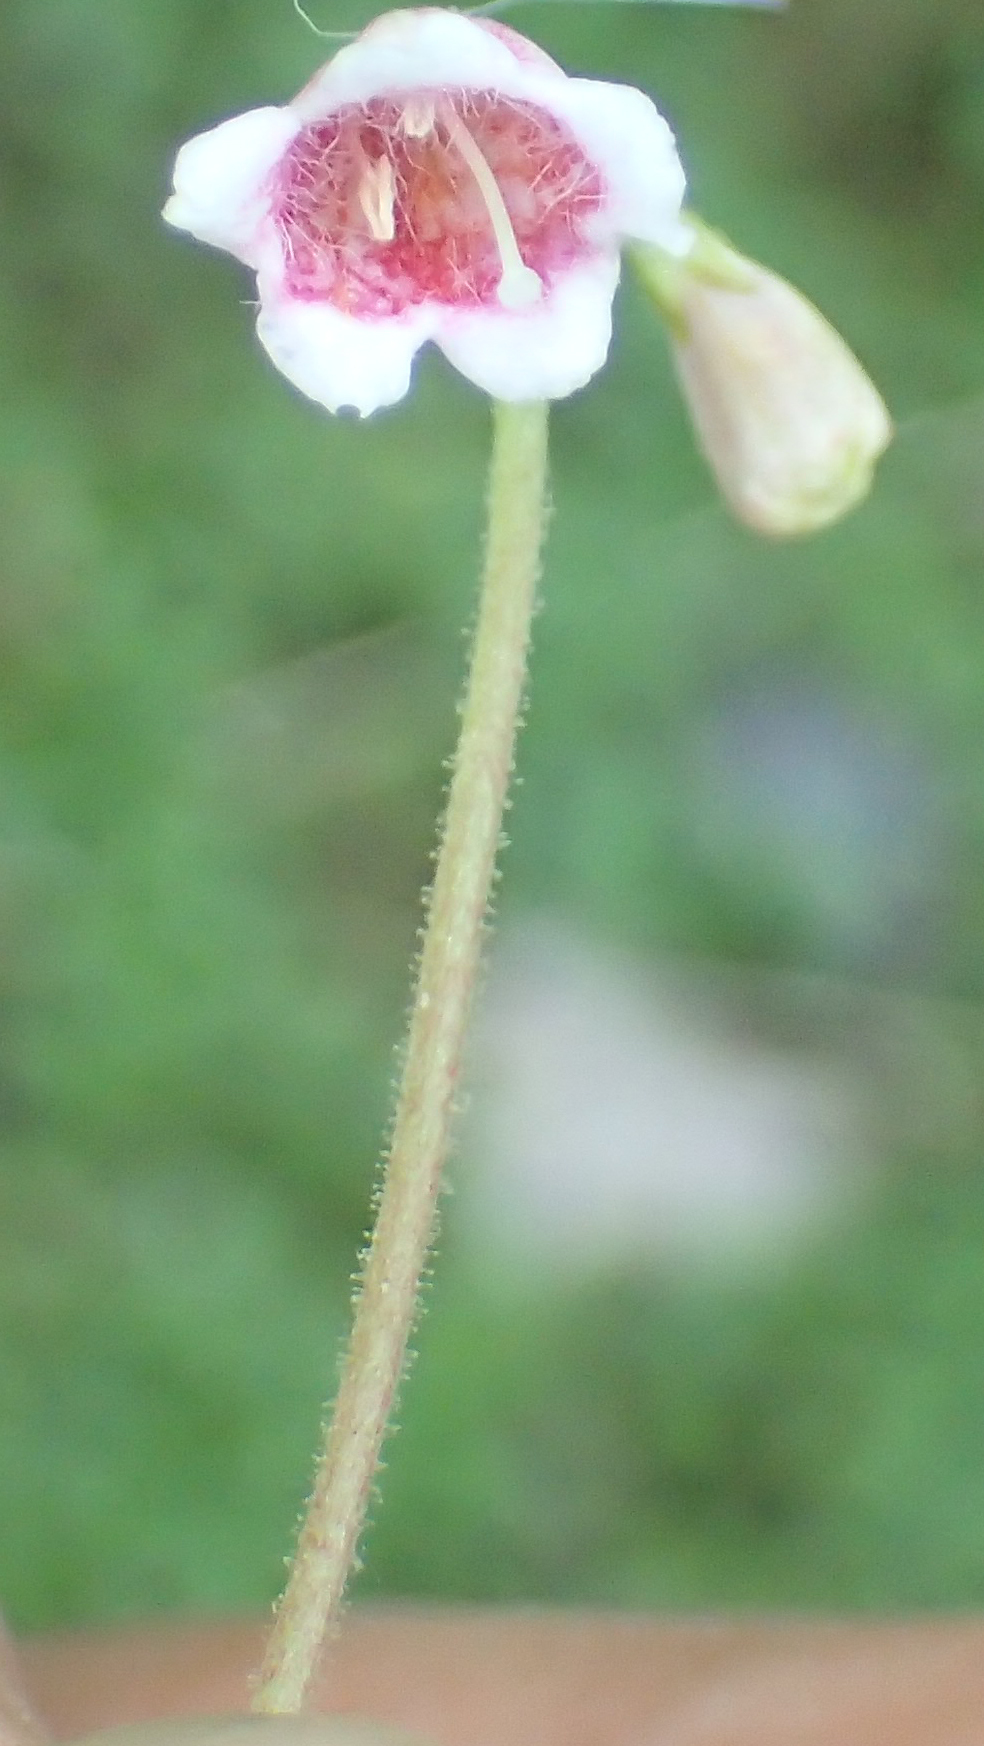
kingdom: Plantae
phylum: Tracheophyta
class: Magnoliopsida
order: Dipsacales
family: Caprifoliaceae
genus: Linnaea
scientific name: Linnaea borealis
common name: Twinflower
